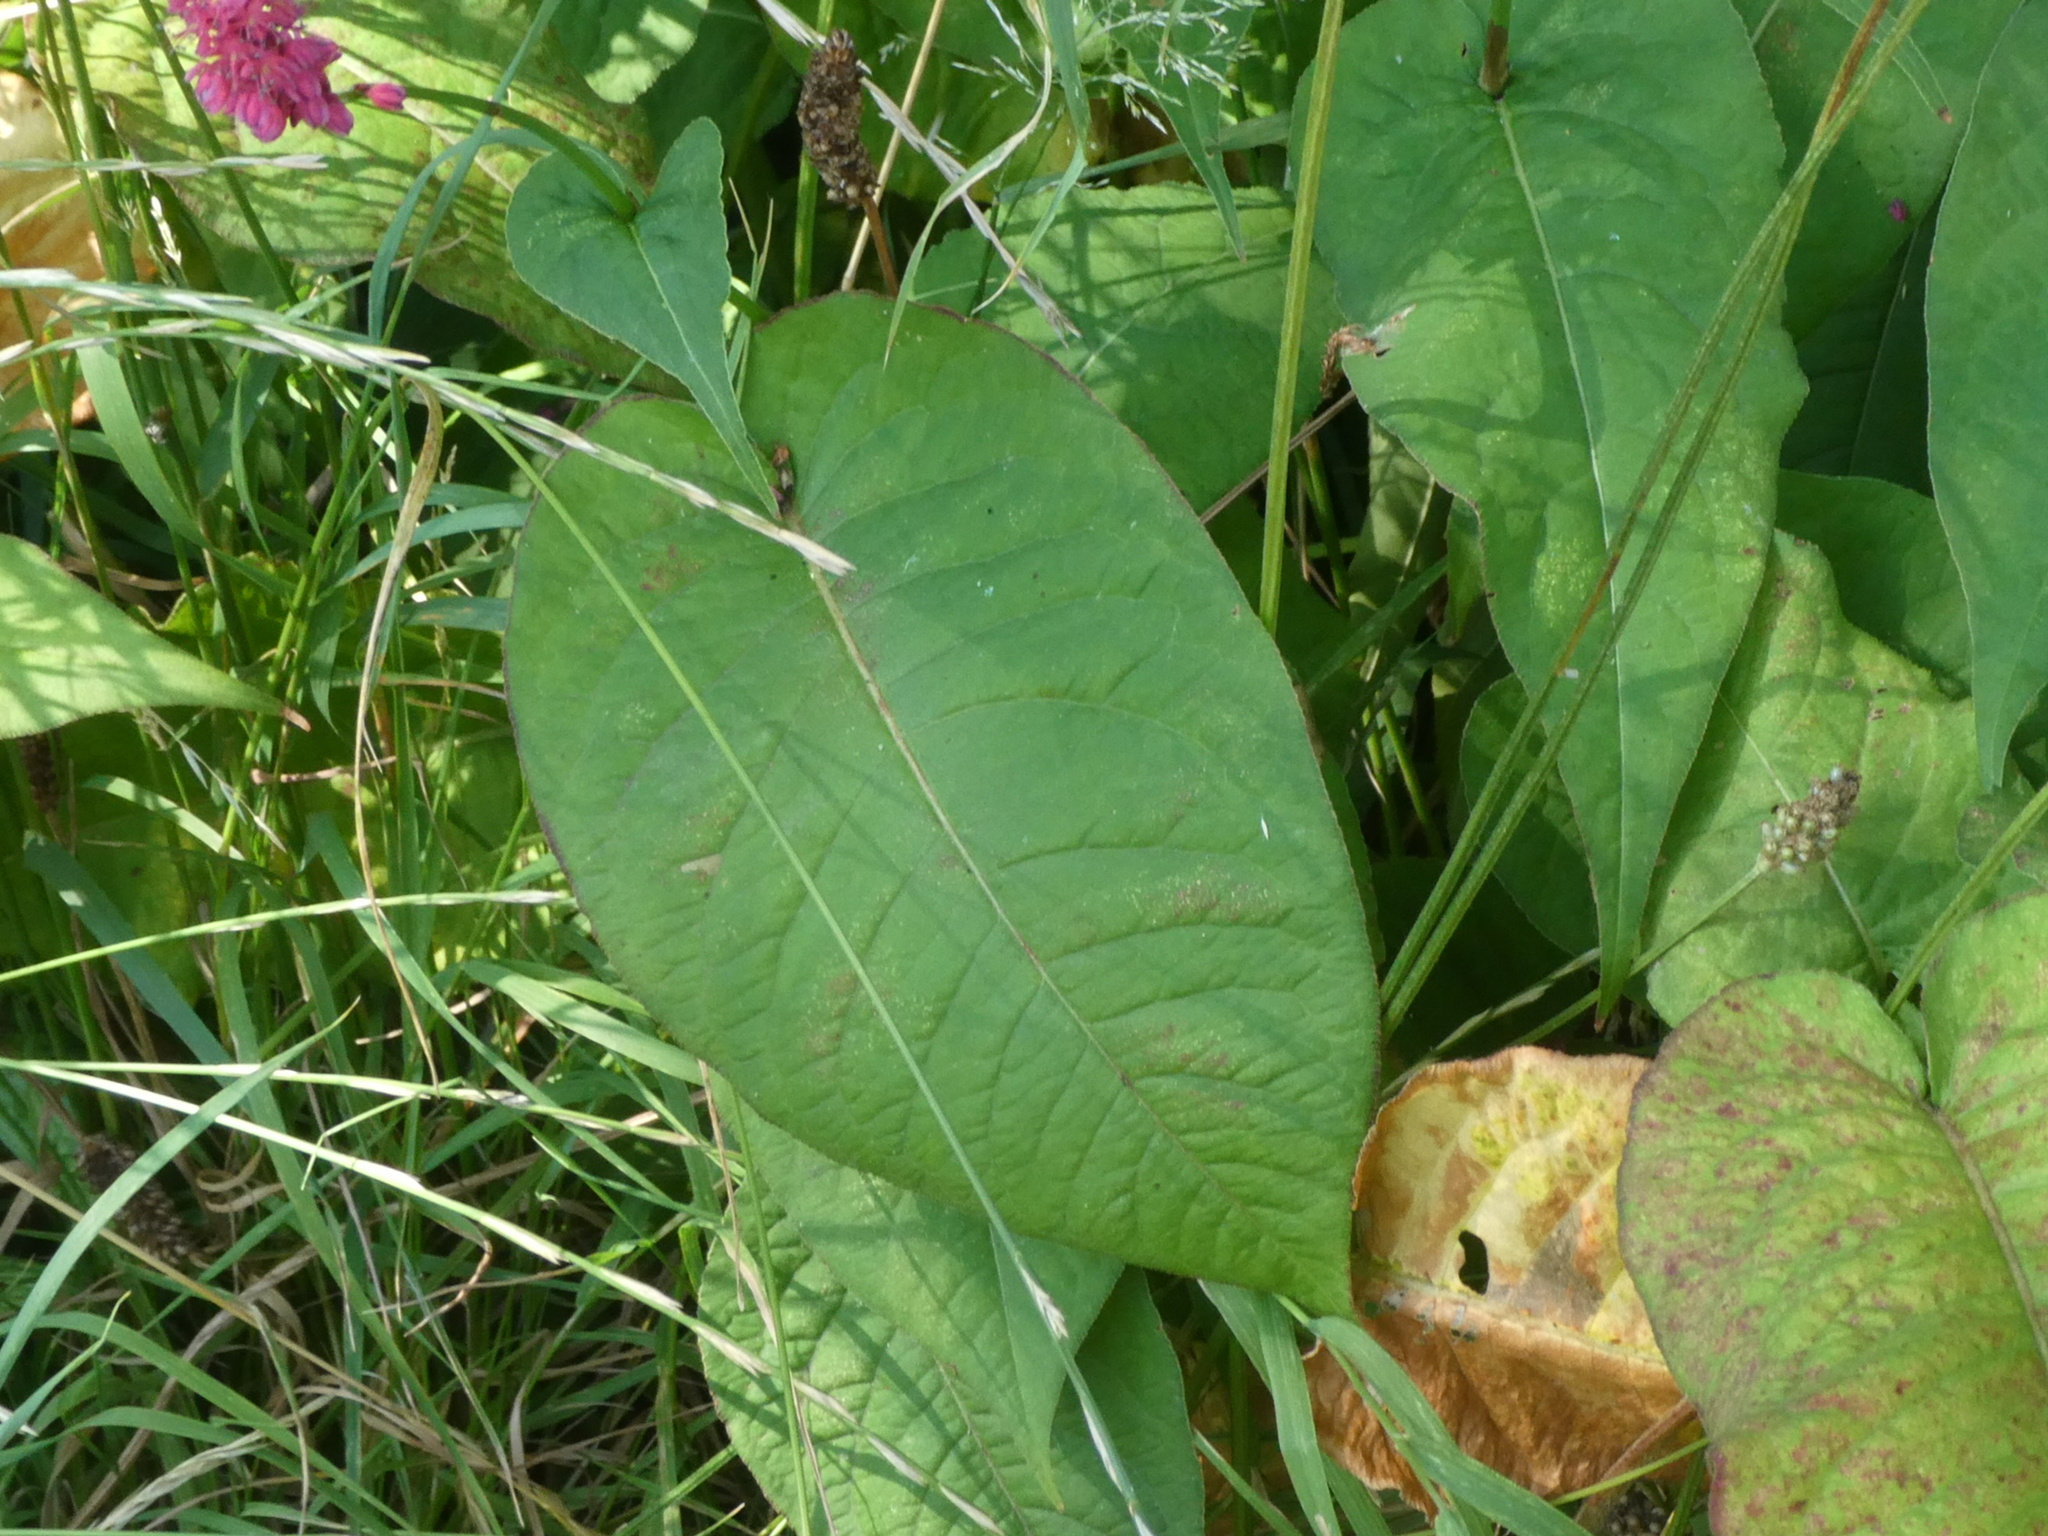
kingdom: Plantae
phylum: Tracheophyta
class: Magnoliopsida
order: Caryophyllales
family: Polygonaceae
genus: Bistorta
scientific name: Bistorta amplexicaulis
